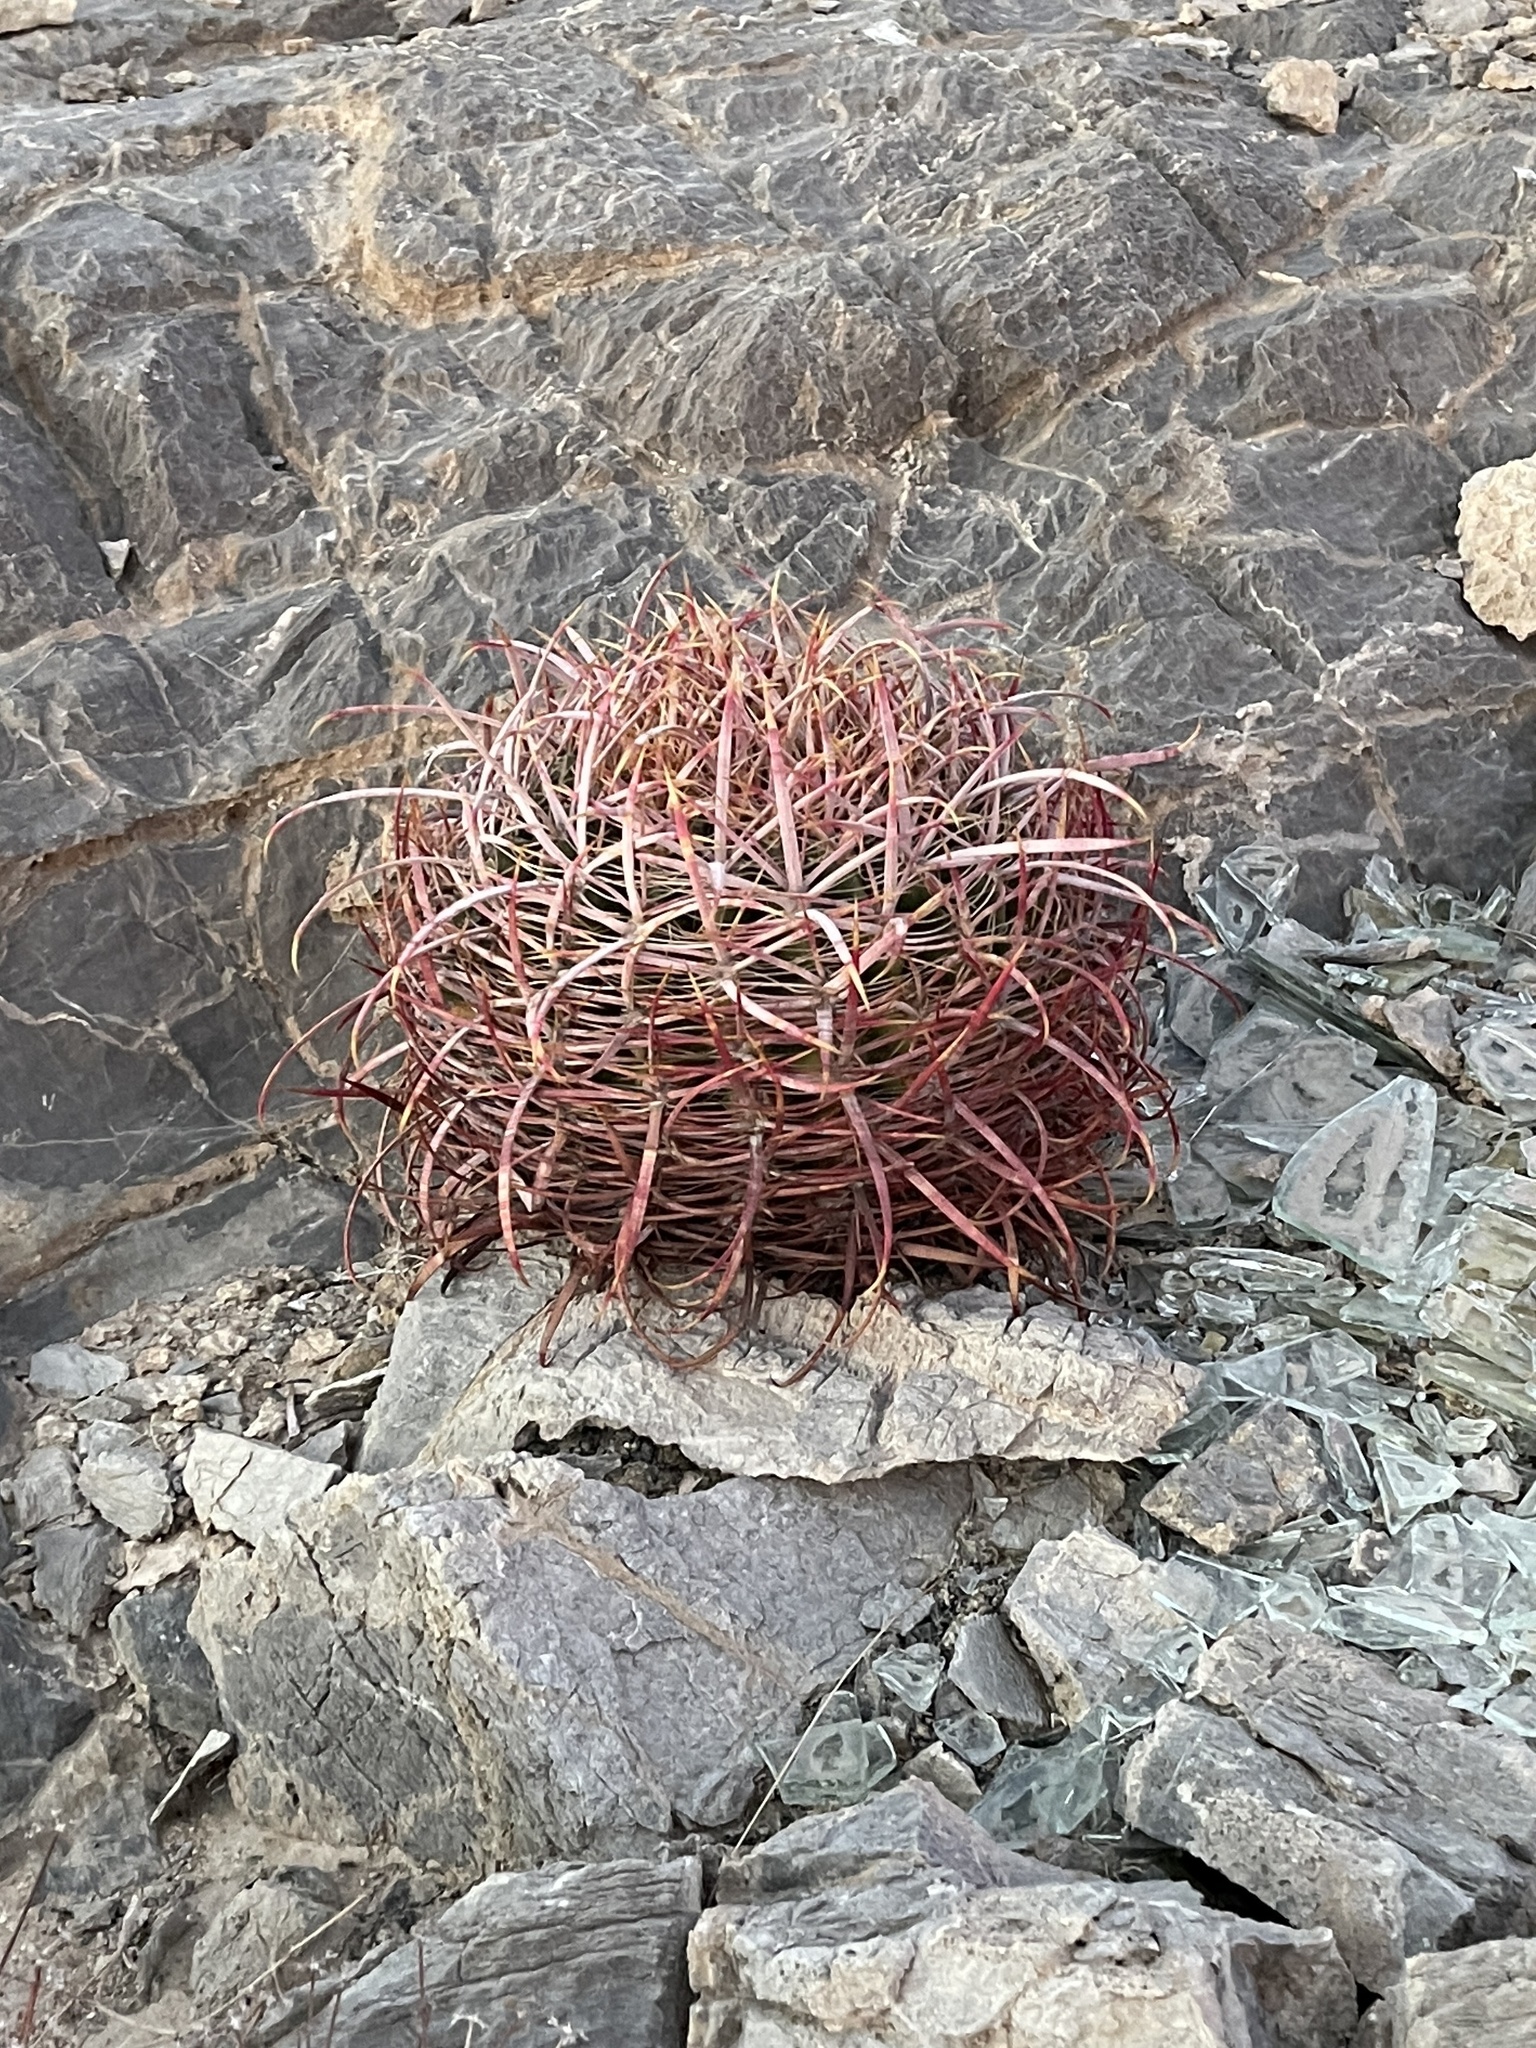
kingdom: Plantae
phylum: Tracheophyta
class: Magnoliopsida
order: Caryophyllales
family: Cactaceae
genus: Ferocactus
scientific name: Ferocactus cylindraceus
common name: California barrel cactus
